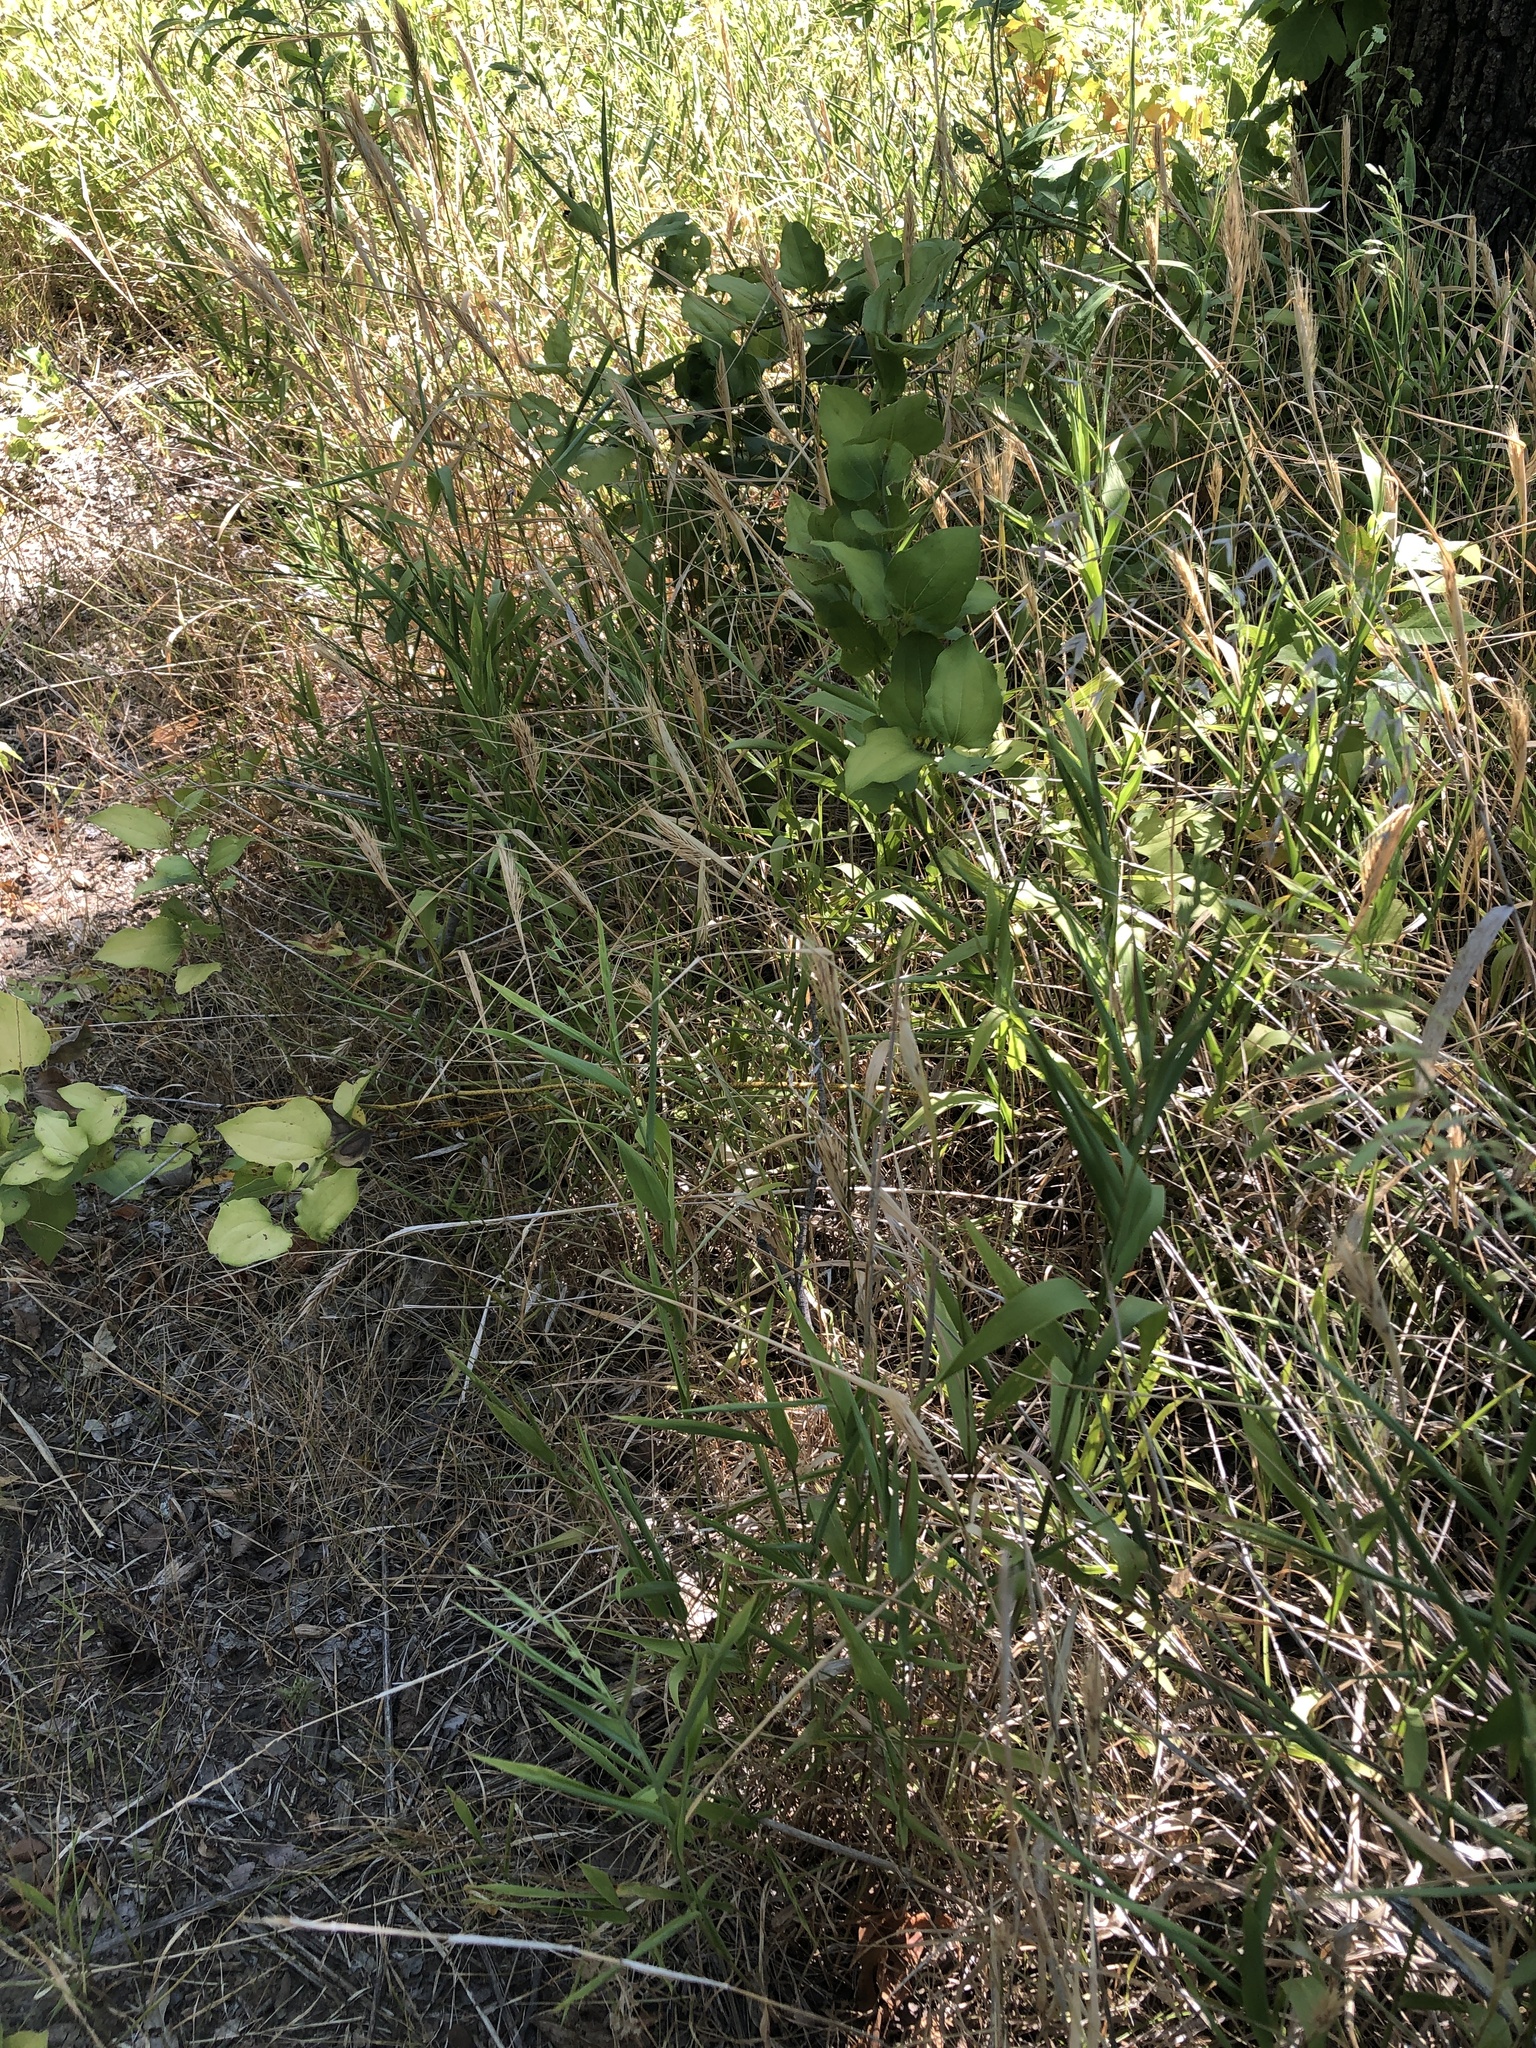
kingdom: Plantae
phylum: Tracheophyta
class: Liliopsida
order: Poales
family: Poaceae
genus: Elymus
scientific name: Elymus virginicus
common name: Common eastern wildrye
